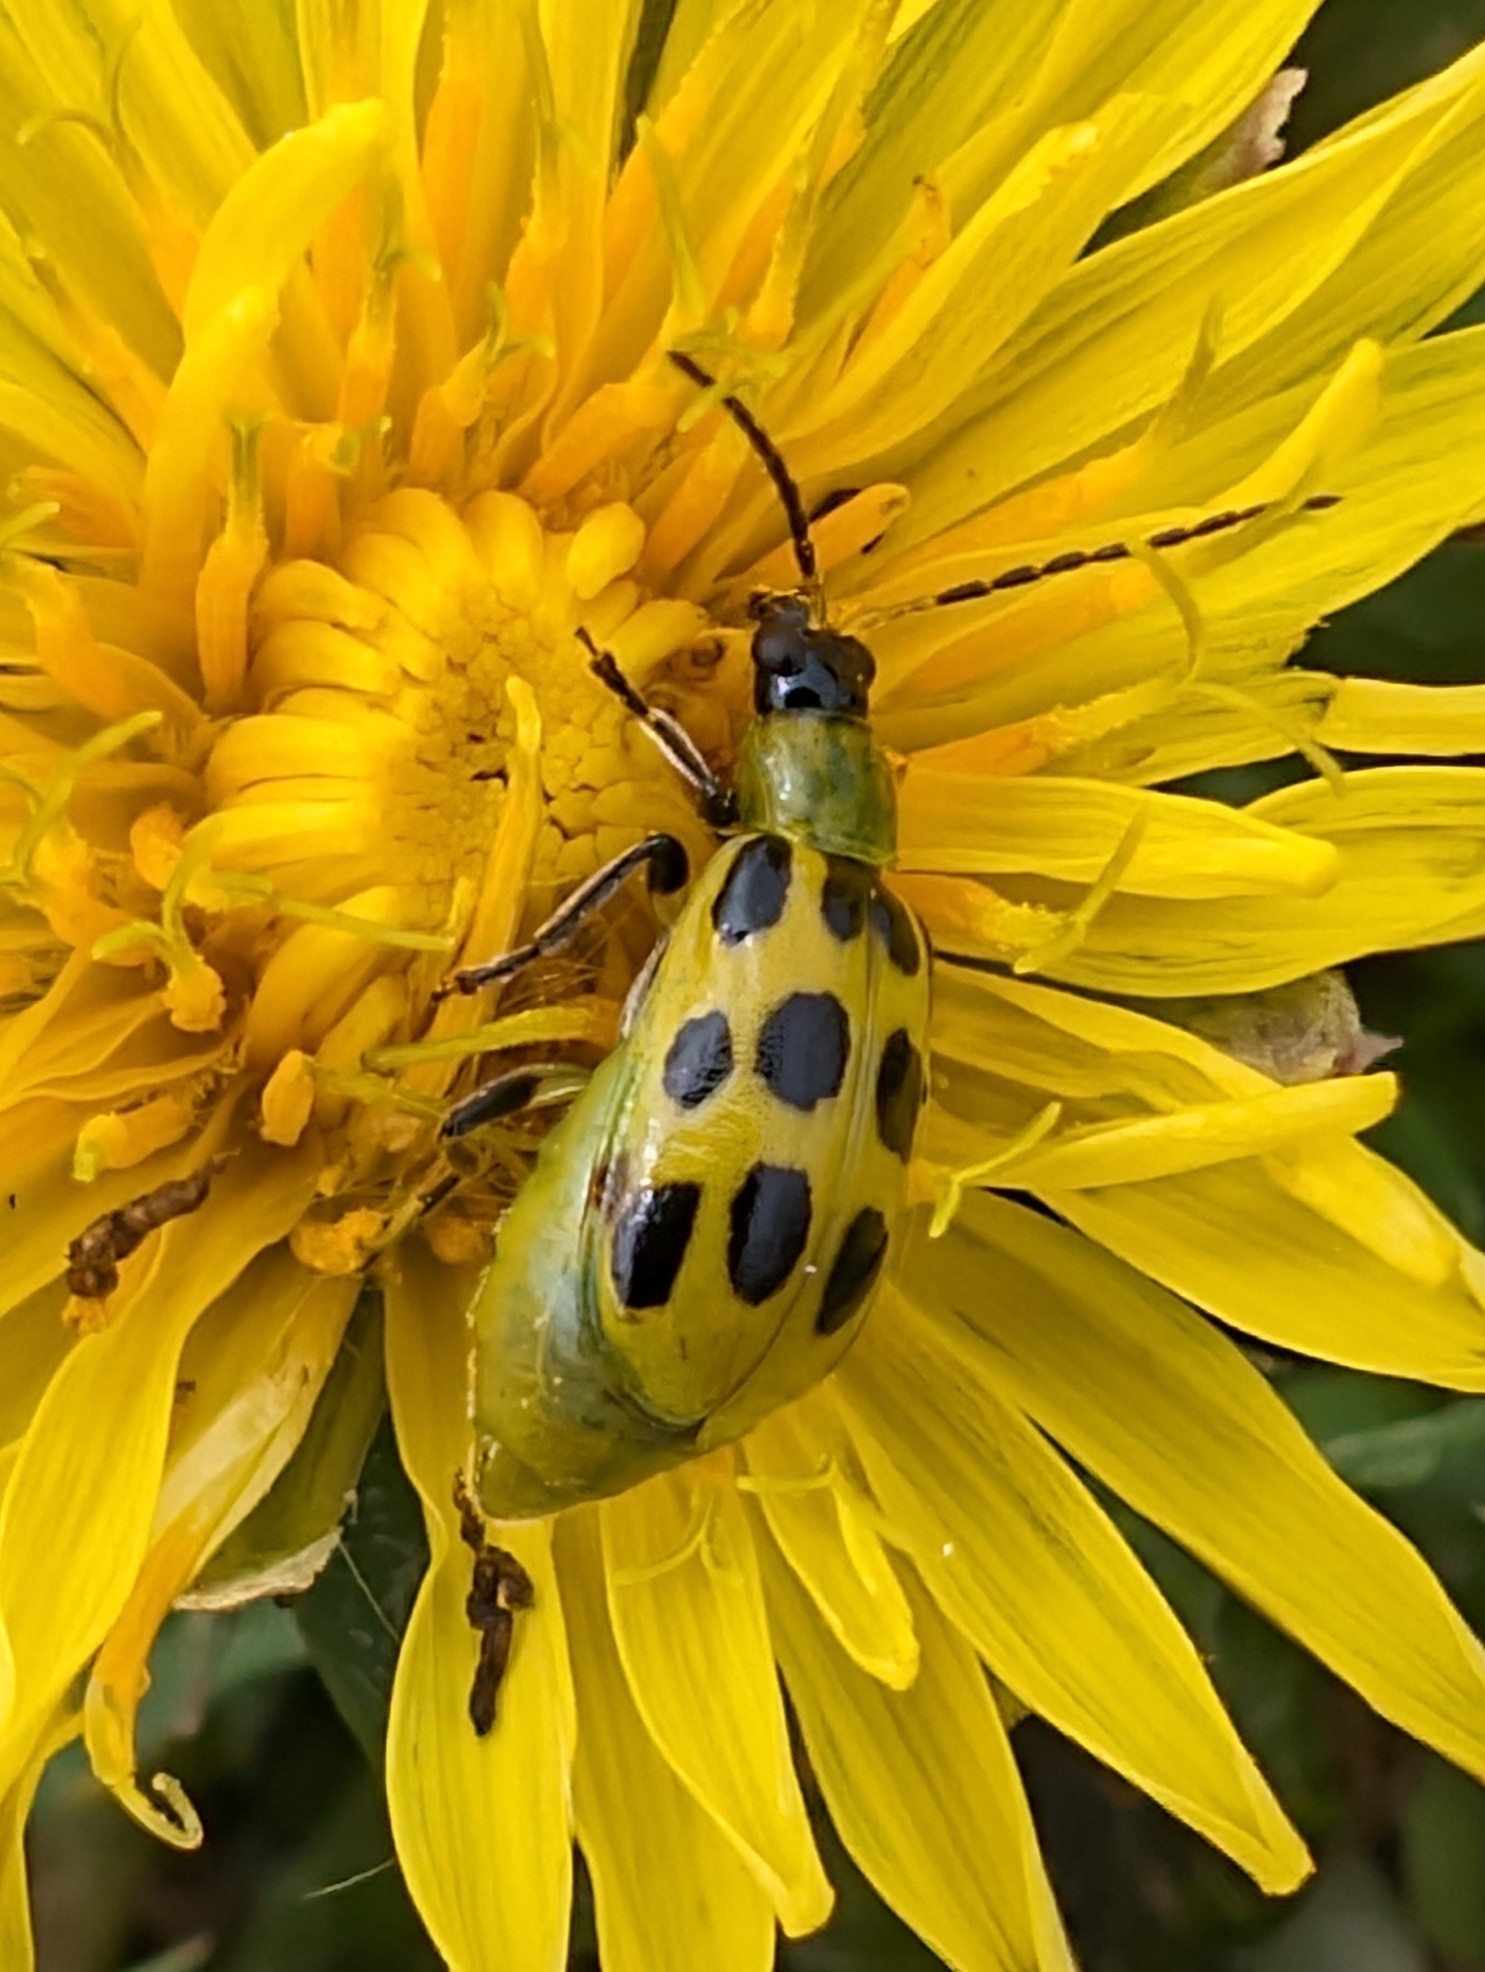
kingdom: Animalia
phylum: Arthropoda
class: Insecta
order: Coleoptera
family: Chrysomelidae
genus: Diabrotica
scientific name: Diabrotica undecimpunctata
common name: Spotted cucumber beetle
